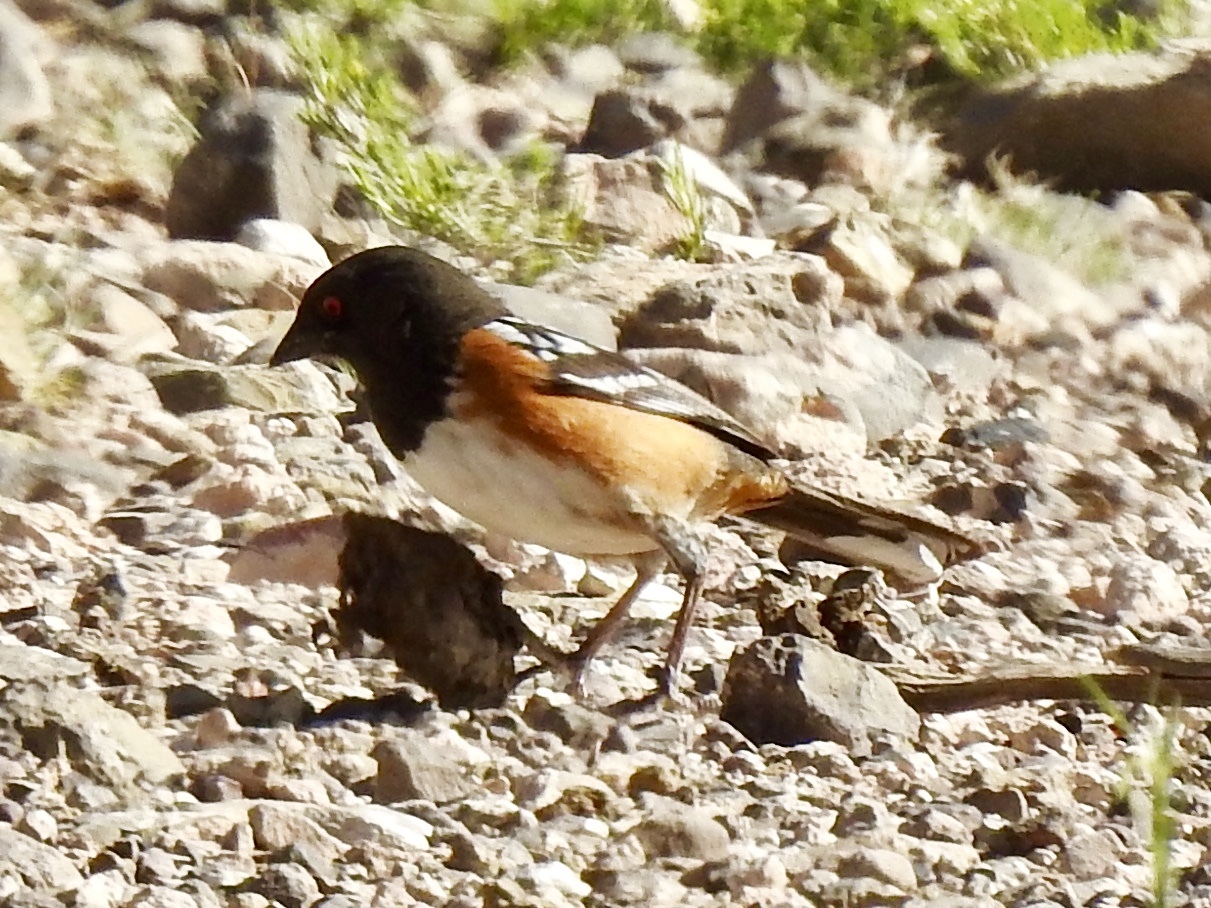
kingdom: Animalia
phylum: Chordata
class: Aves
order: Passeriformes
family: Passerellidae
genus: Pipilo
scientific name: Pipilo maculatus
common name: Spotted towhee
